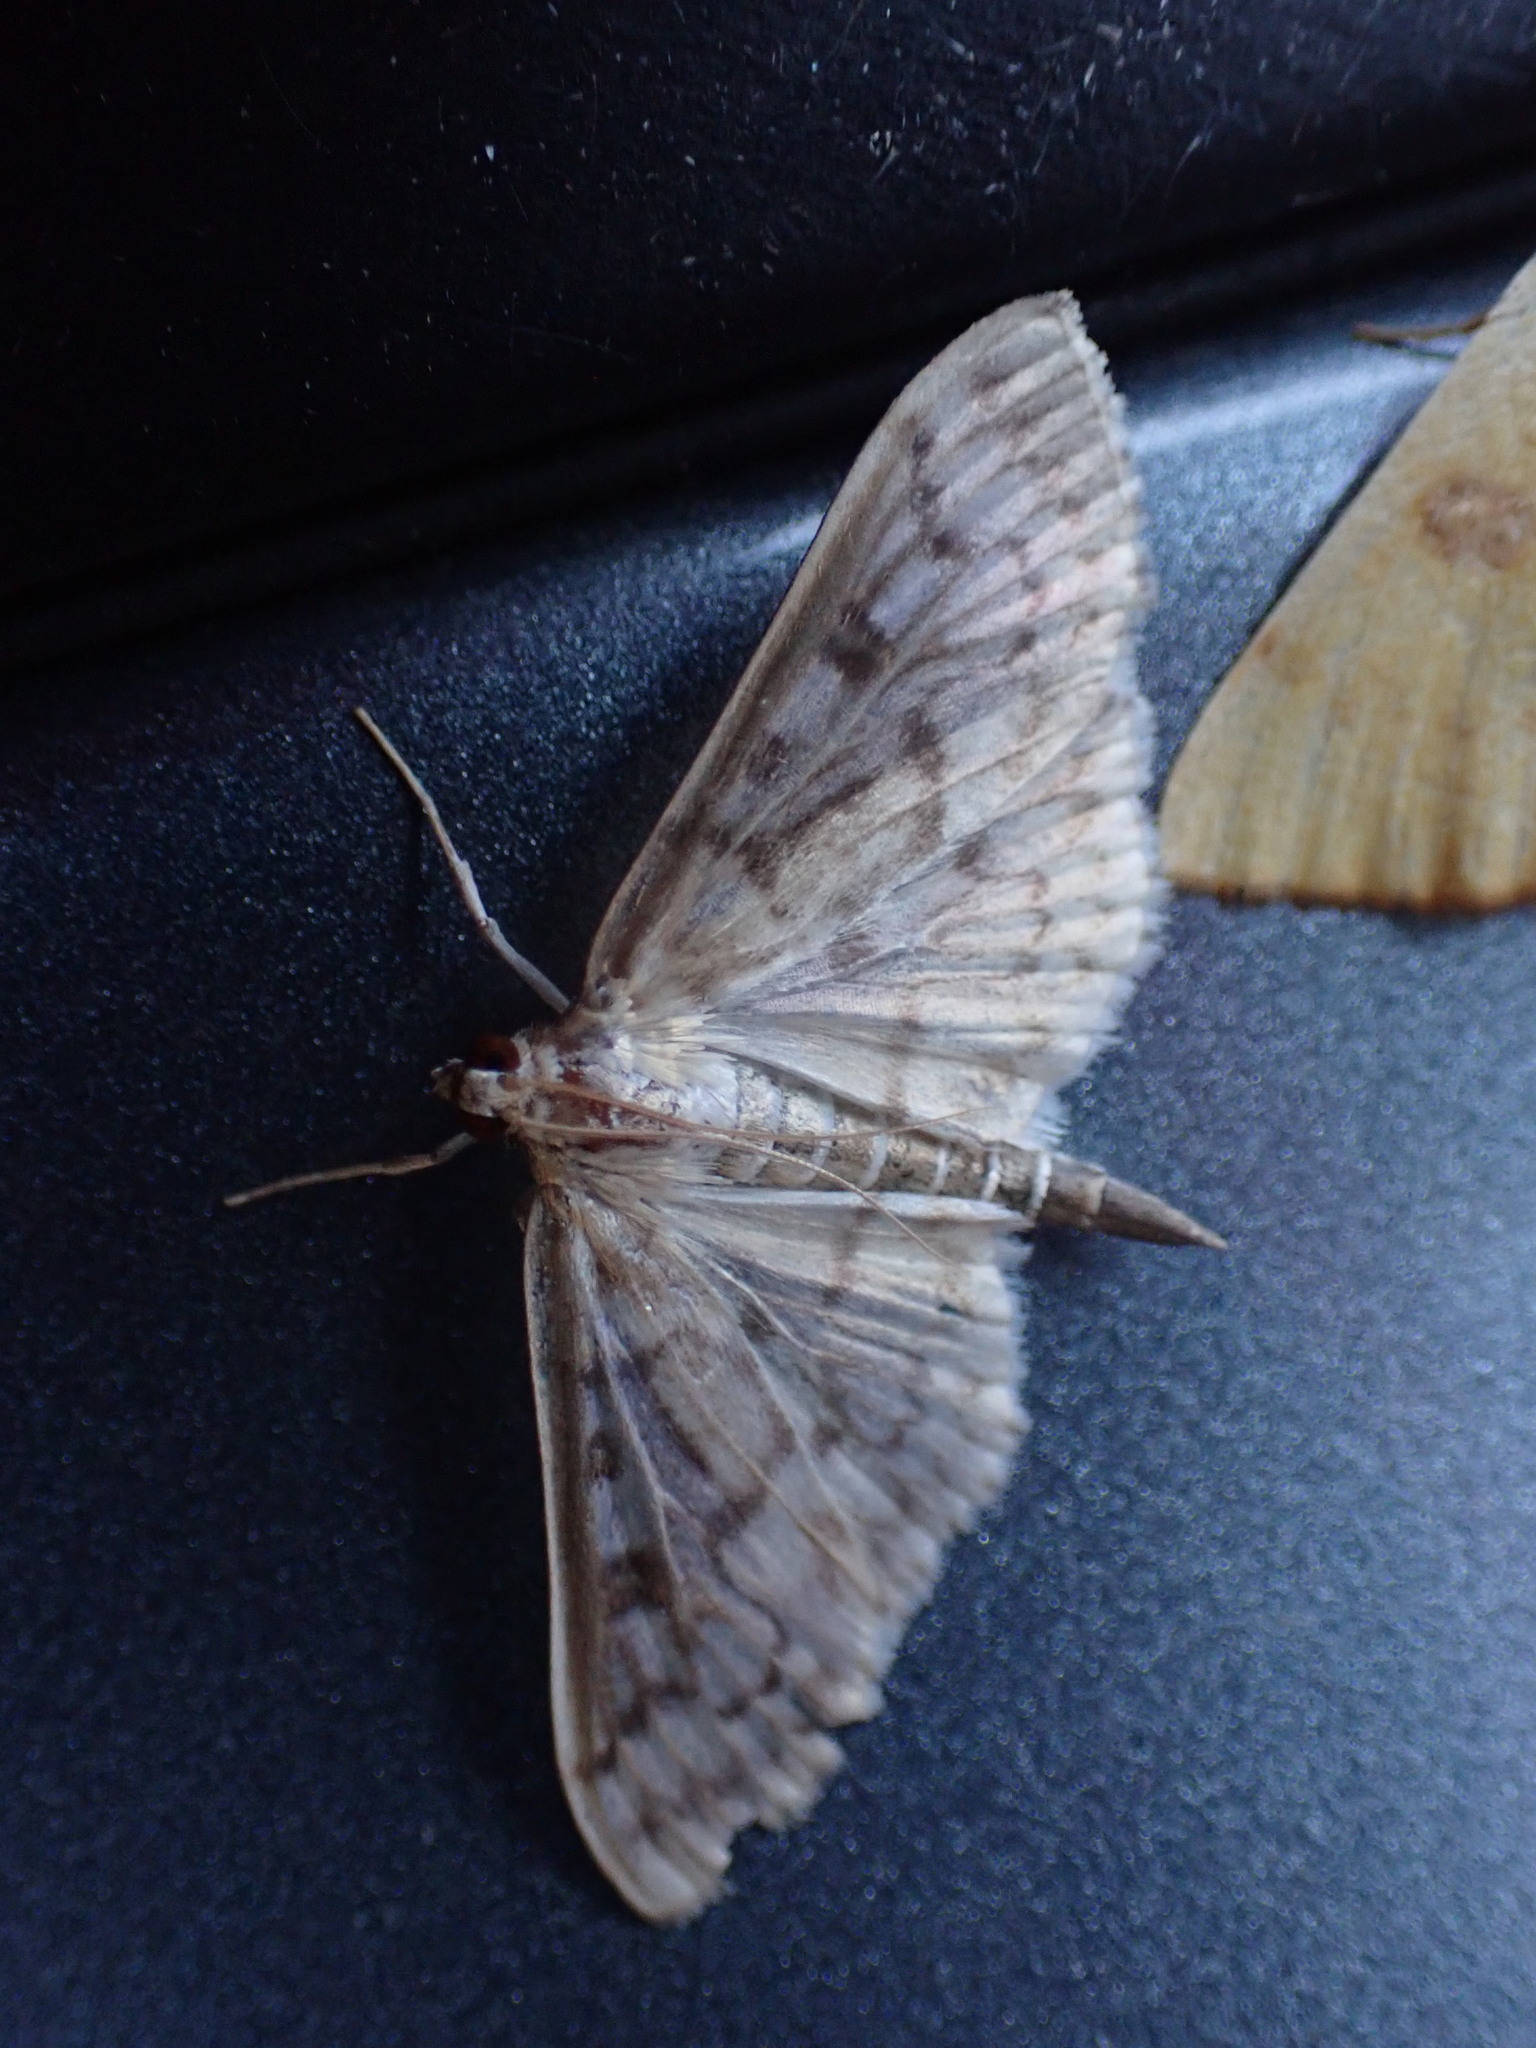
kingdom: Animalia
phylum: Arthropoda
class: Insecta
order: Lepidoptera
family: Crambidae
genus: Herpetogramma
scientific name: Herpetogramma aquilonalis
